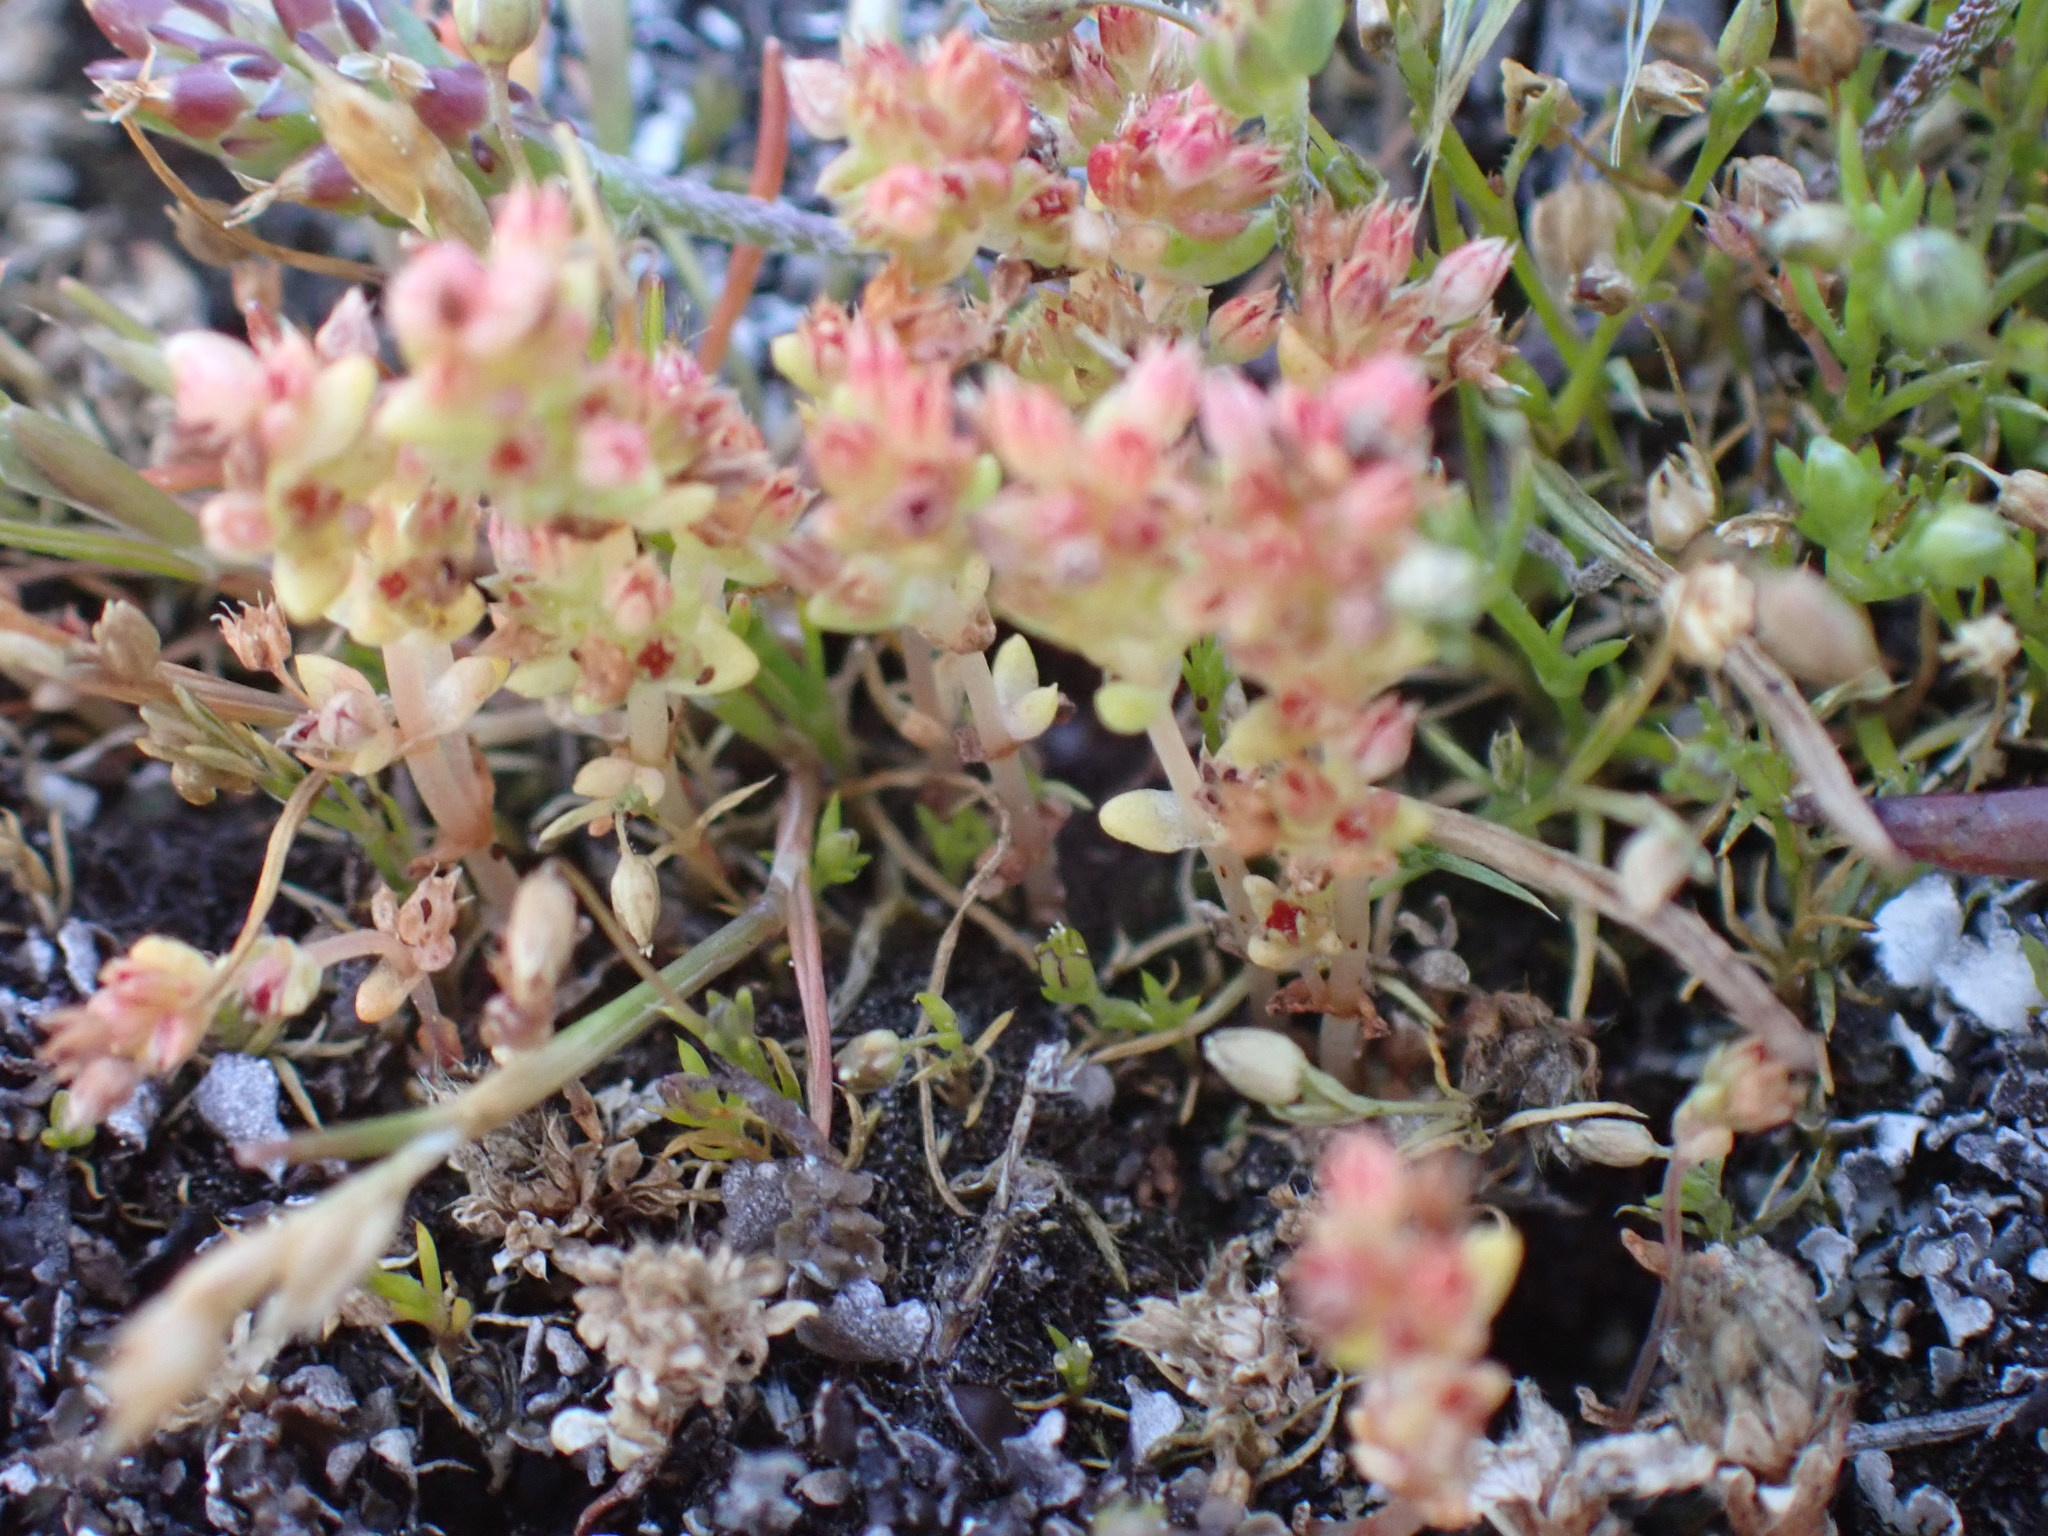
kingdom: Plantae
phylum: Tracheophyta
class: Magnoliopsida
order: Saxifragales
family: Crassulaceae
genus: Crassula
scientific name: Crassula connata
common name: Erect pygmyweed
